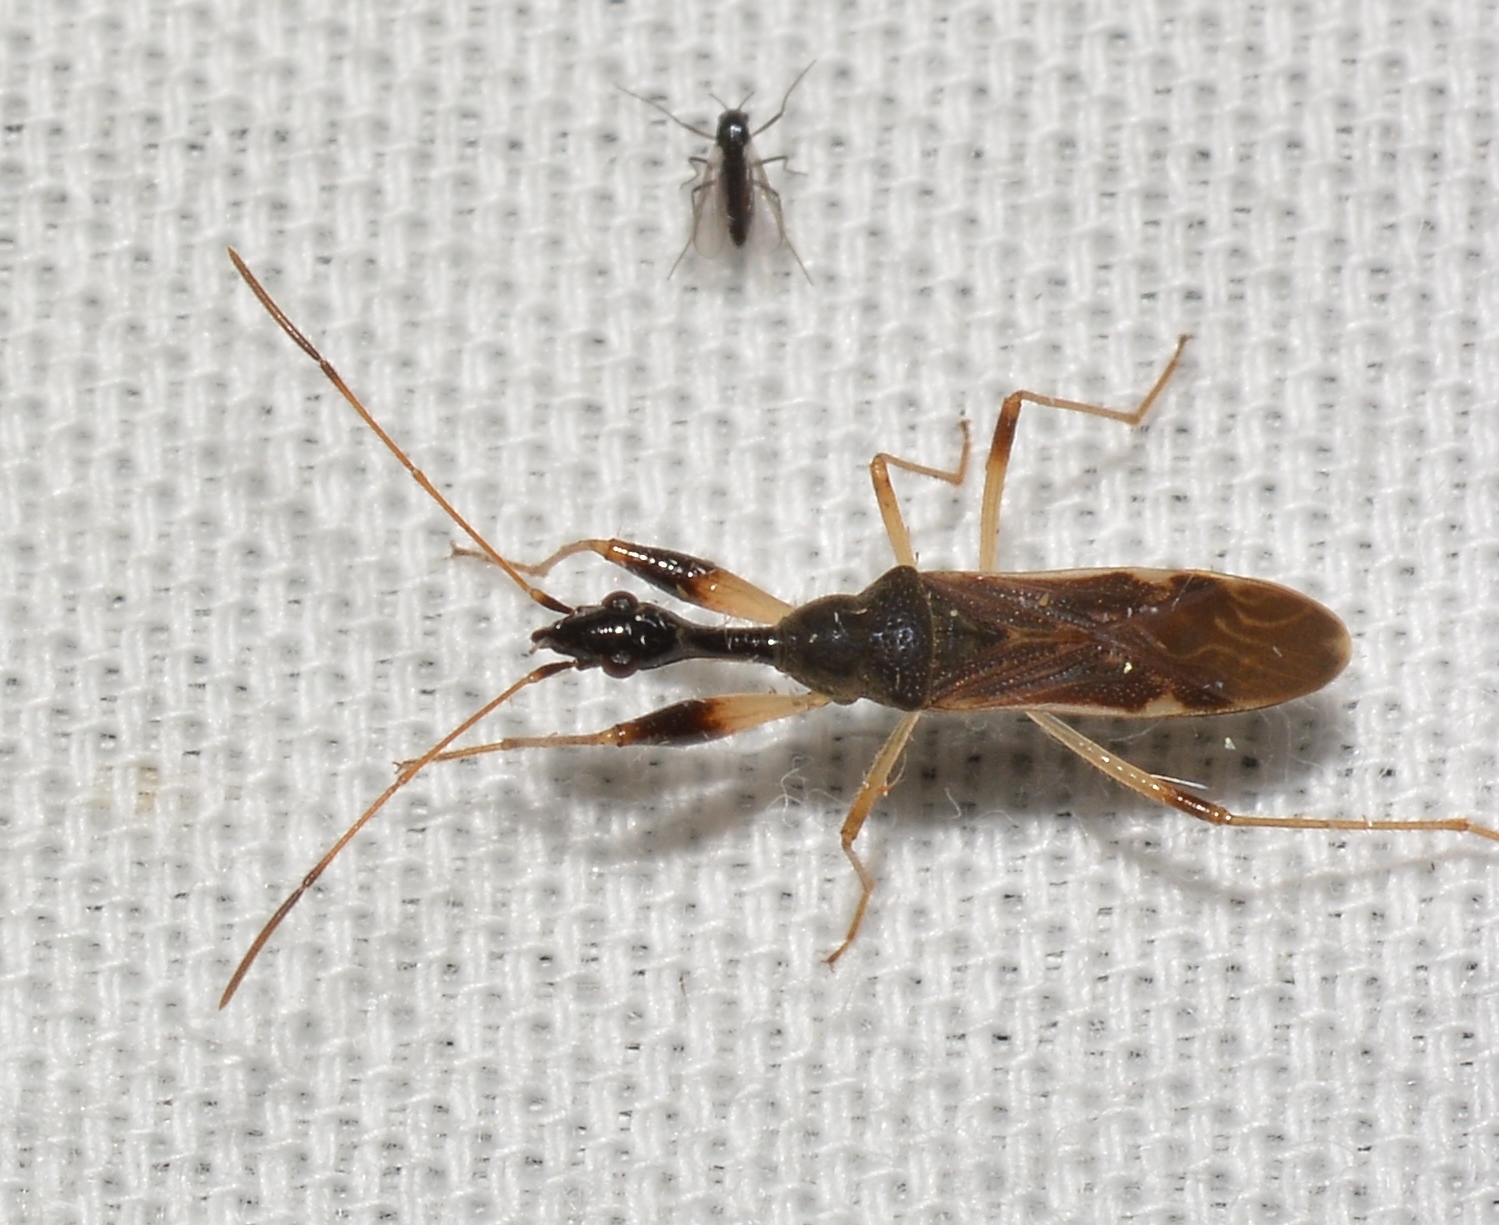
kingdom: Animalia
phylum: Arthropoda
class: Insecta
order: Hemiptera
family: Rhyparochromidae
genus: Myodocha
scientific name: Myodocha serripes
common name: Long-necked seed bug
